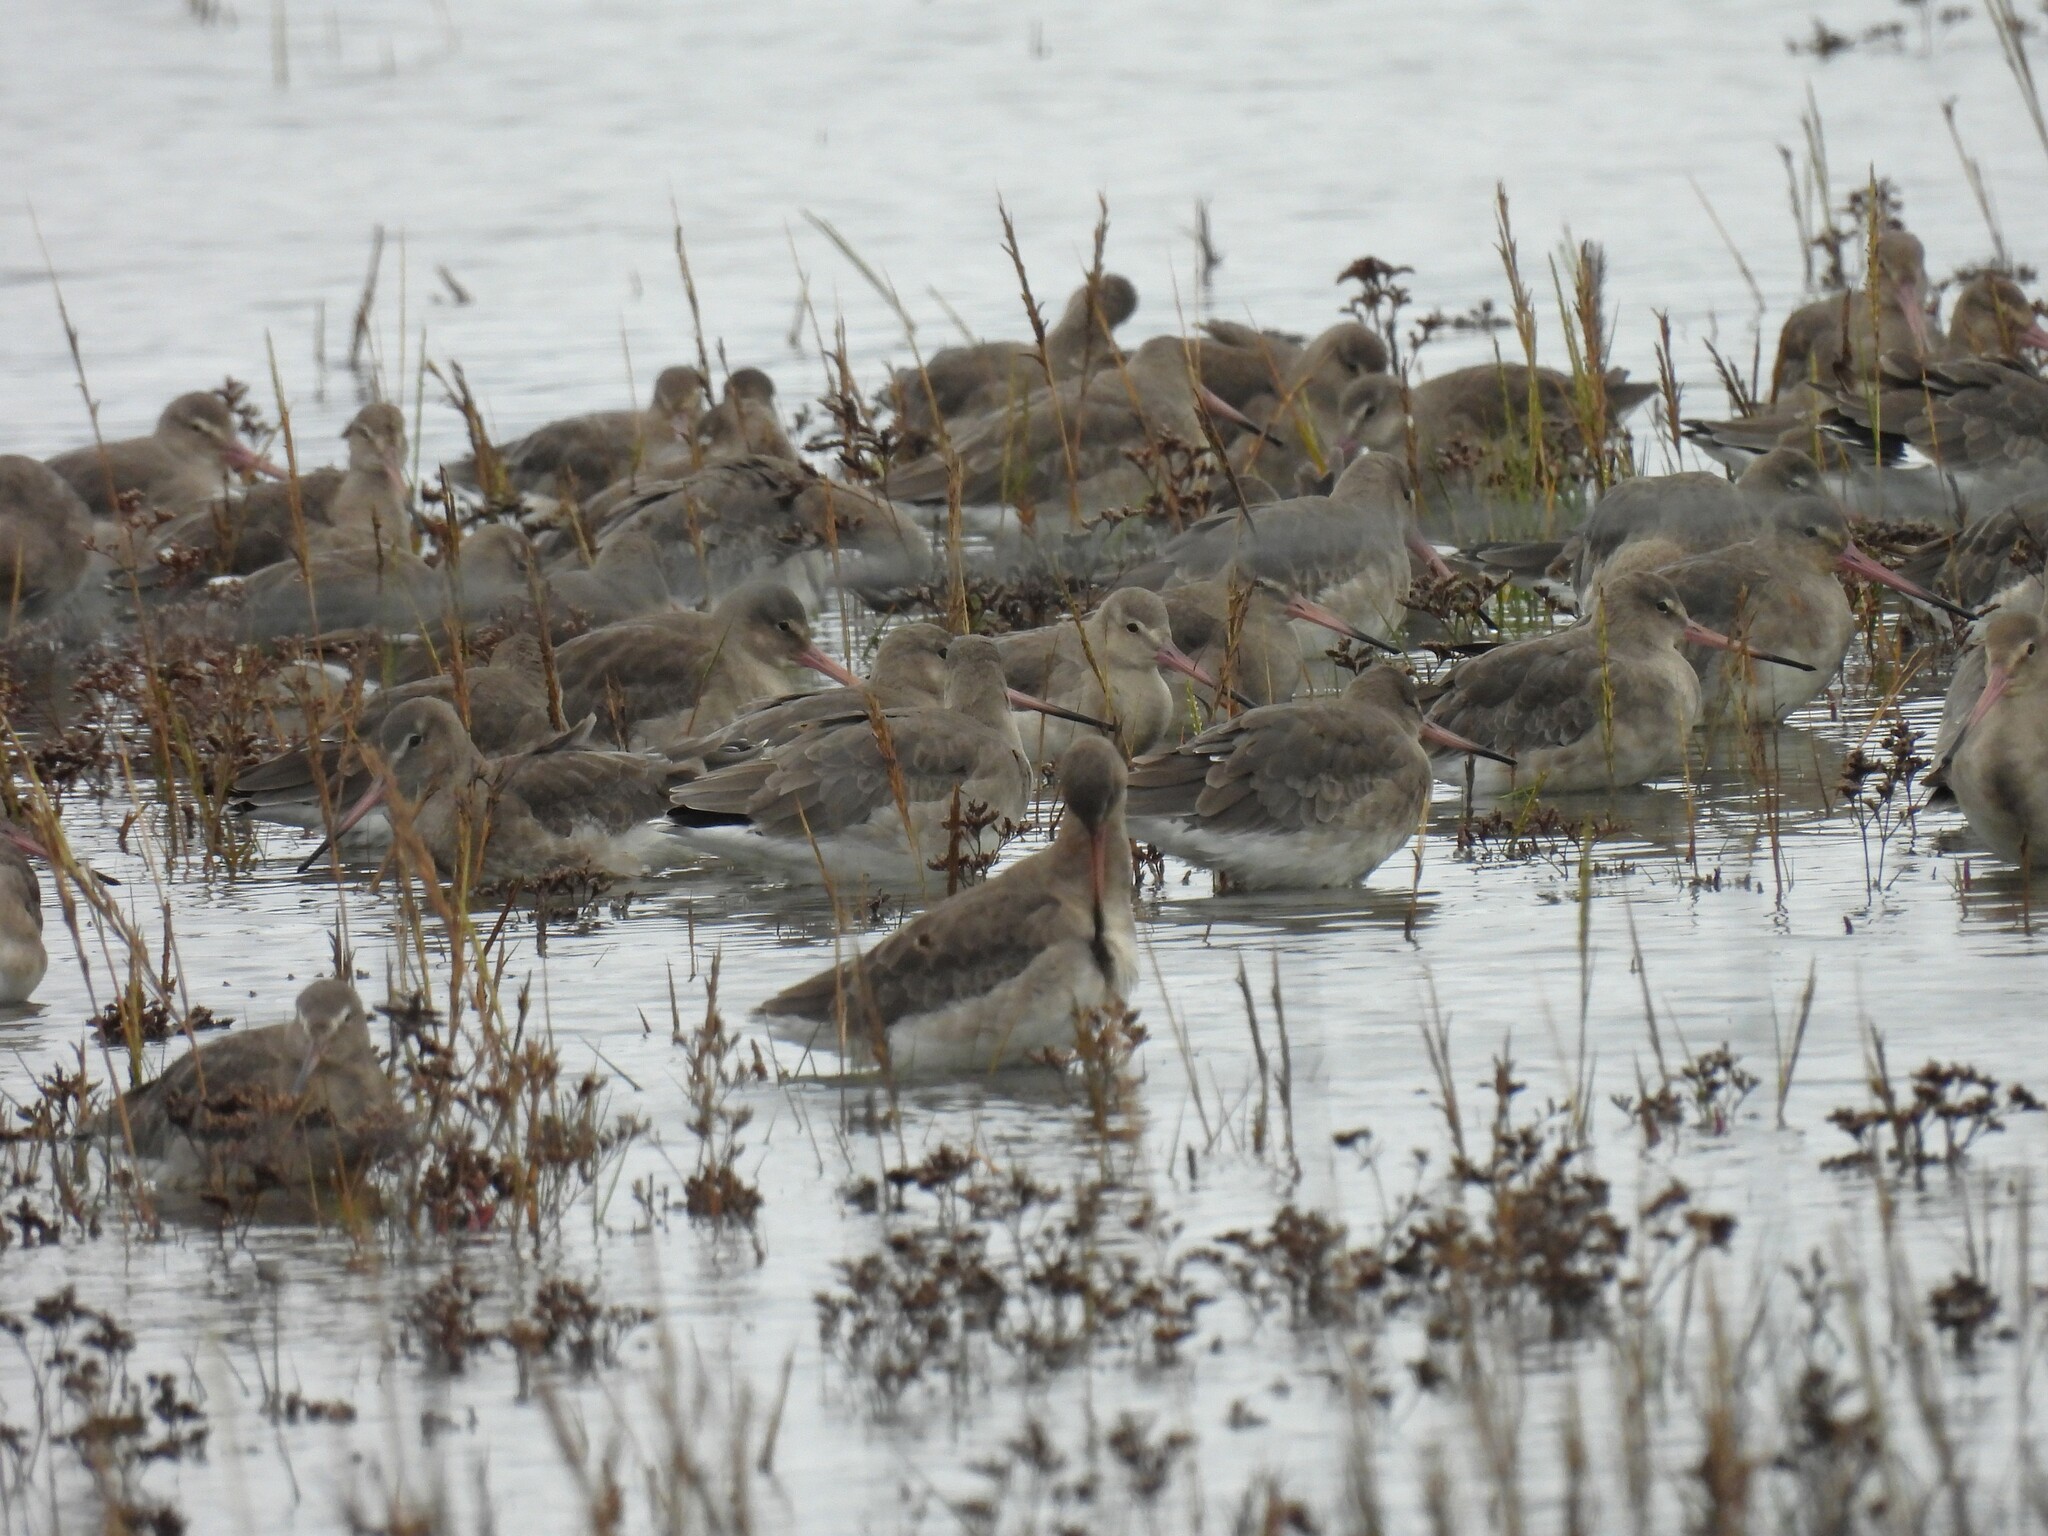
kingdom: Animalia
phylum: Chordata
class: Aves
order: Charadriiformes
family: Scolopacidae
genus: Limosa
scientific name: Limosa limosa
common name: Black-tailed godwit
